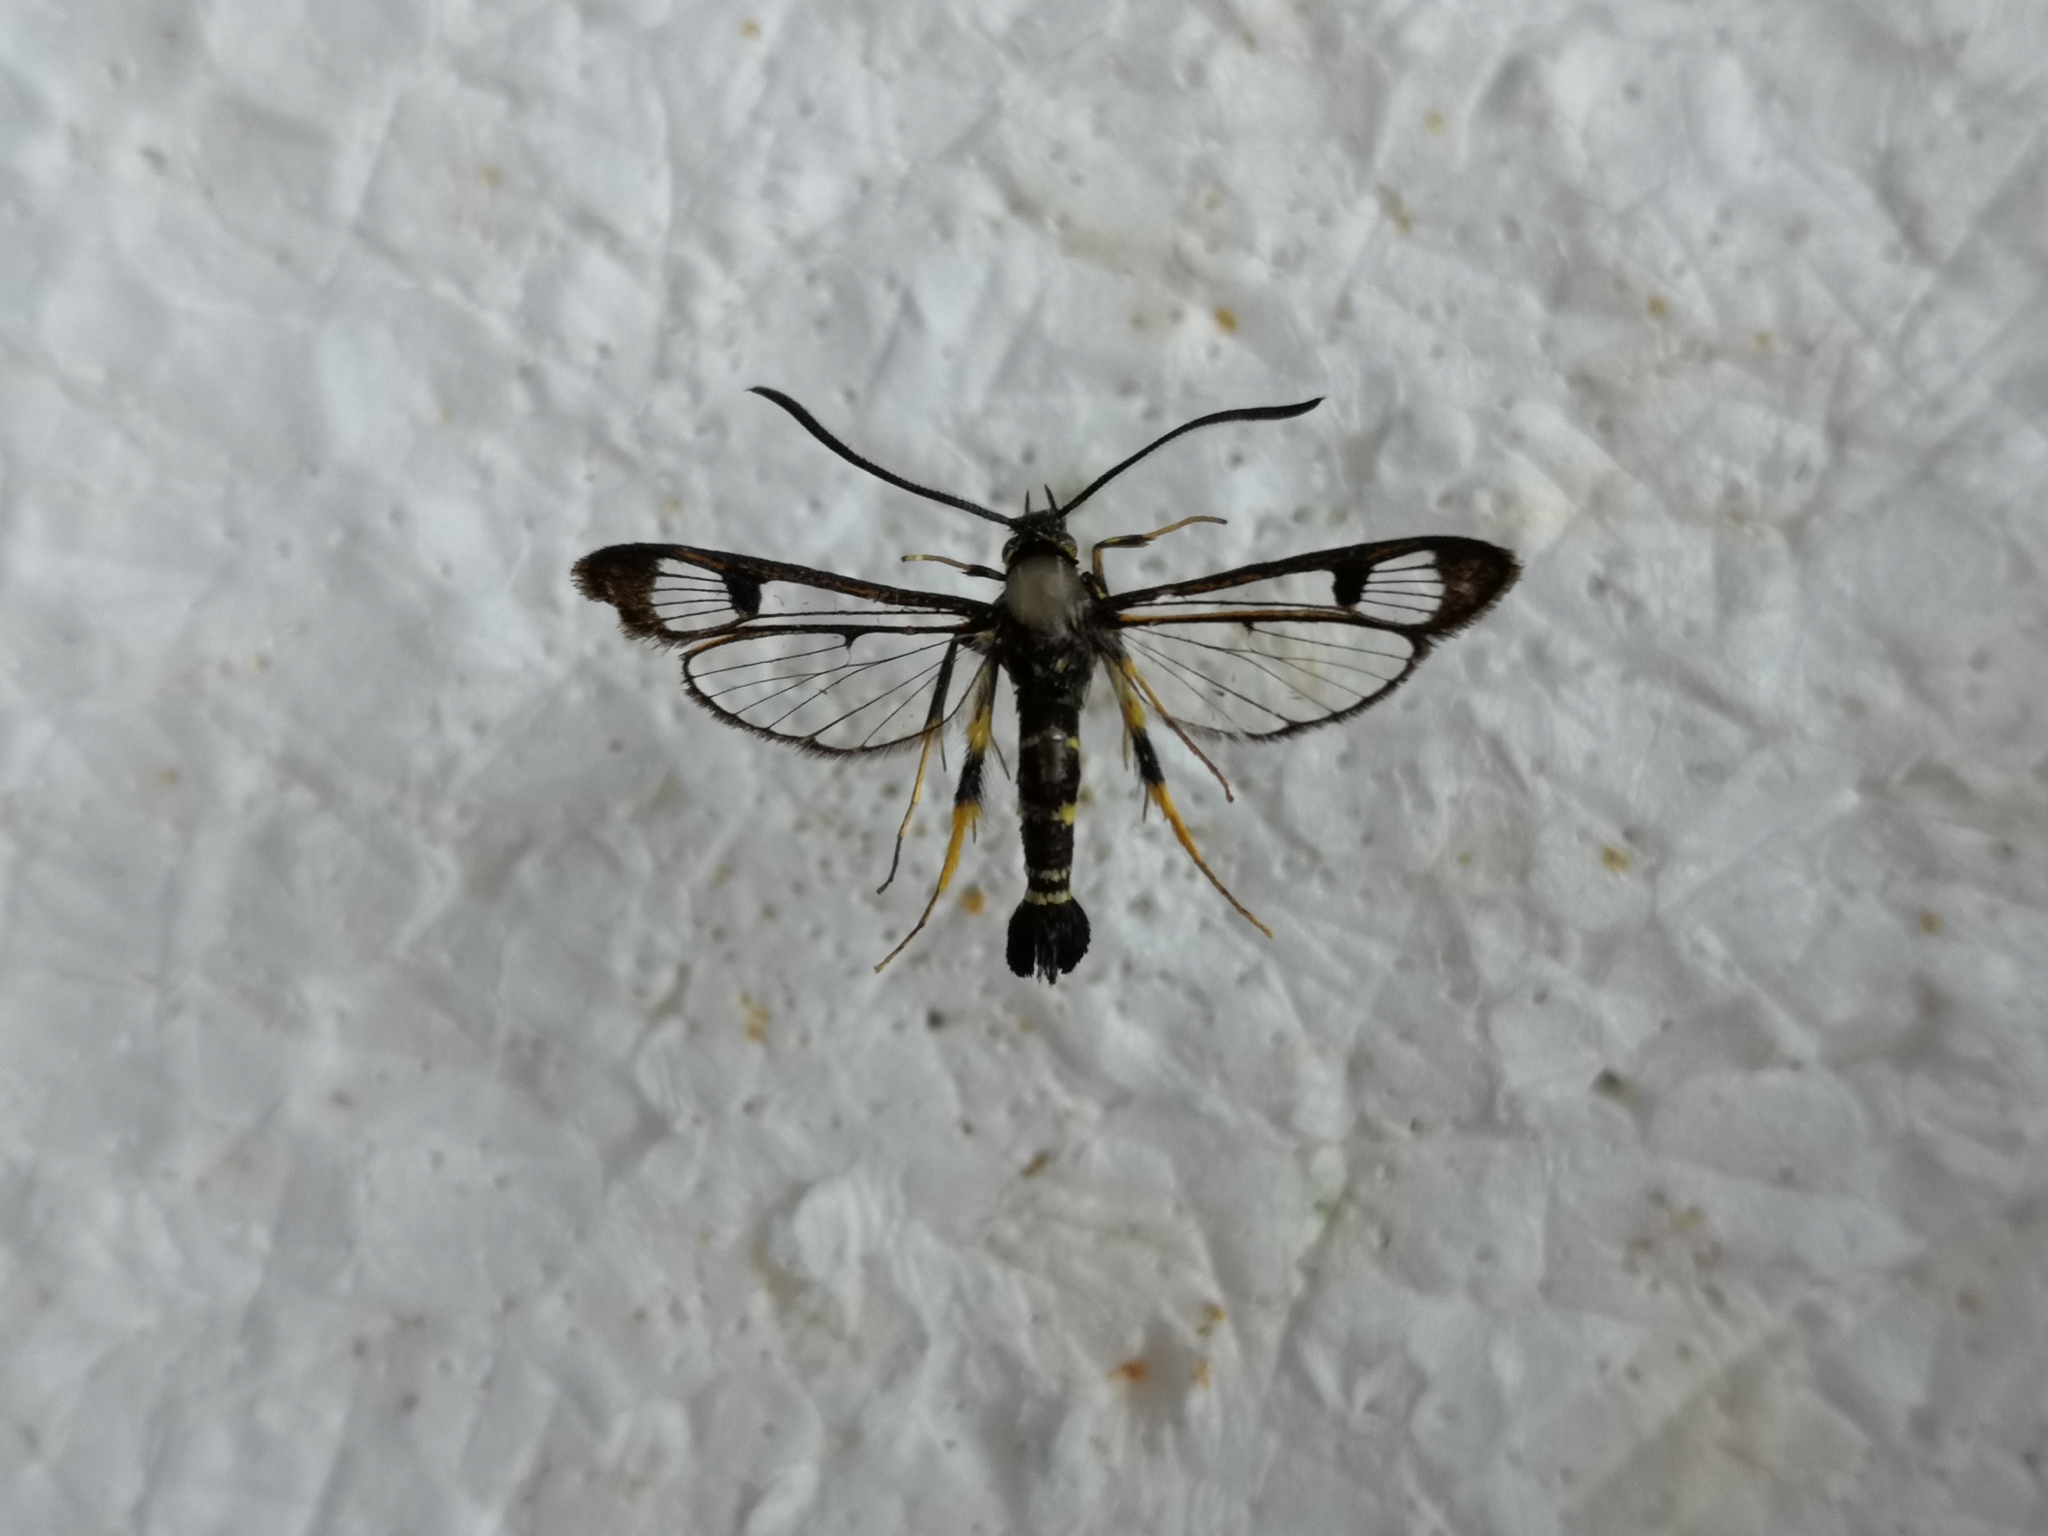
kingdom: Animalia
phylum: Arthropoda
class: Insecta
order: Lepidoptera
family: Sesiidae
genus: Synanthedon
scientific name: Synanthedon caucasicum
